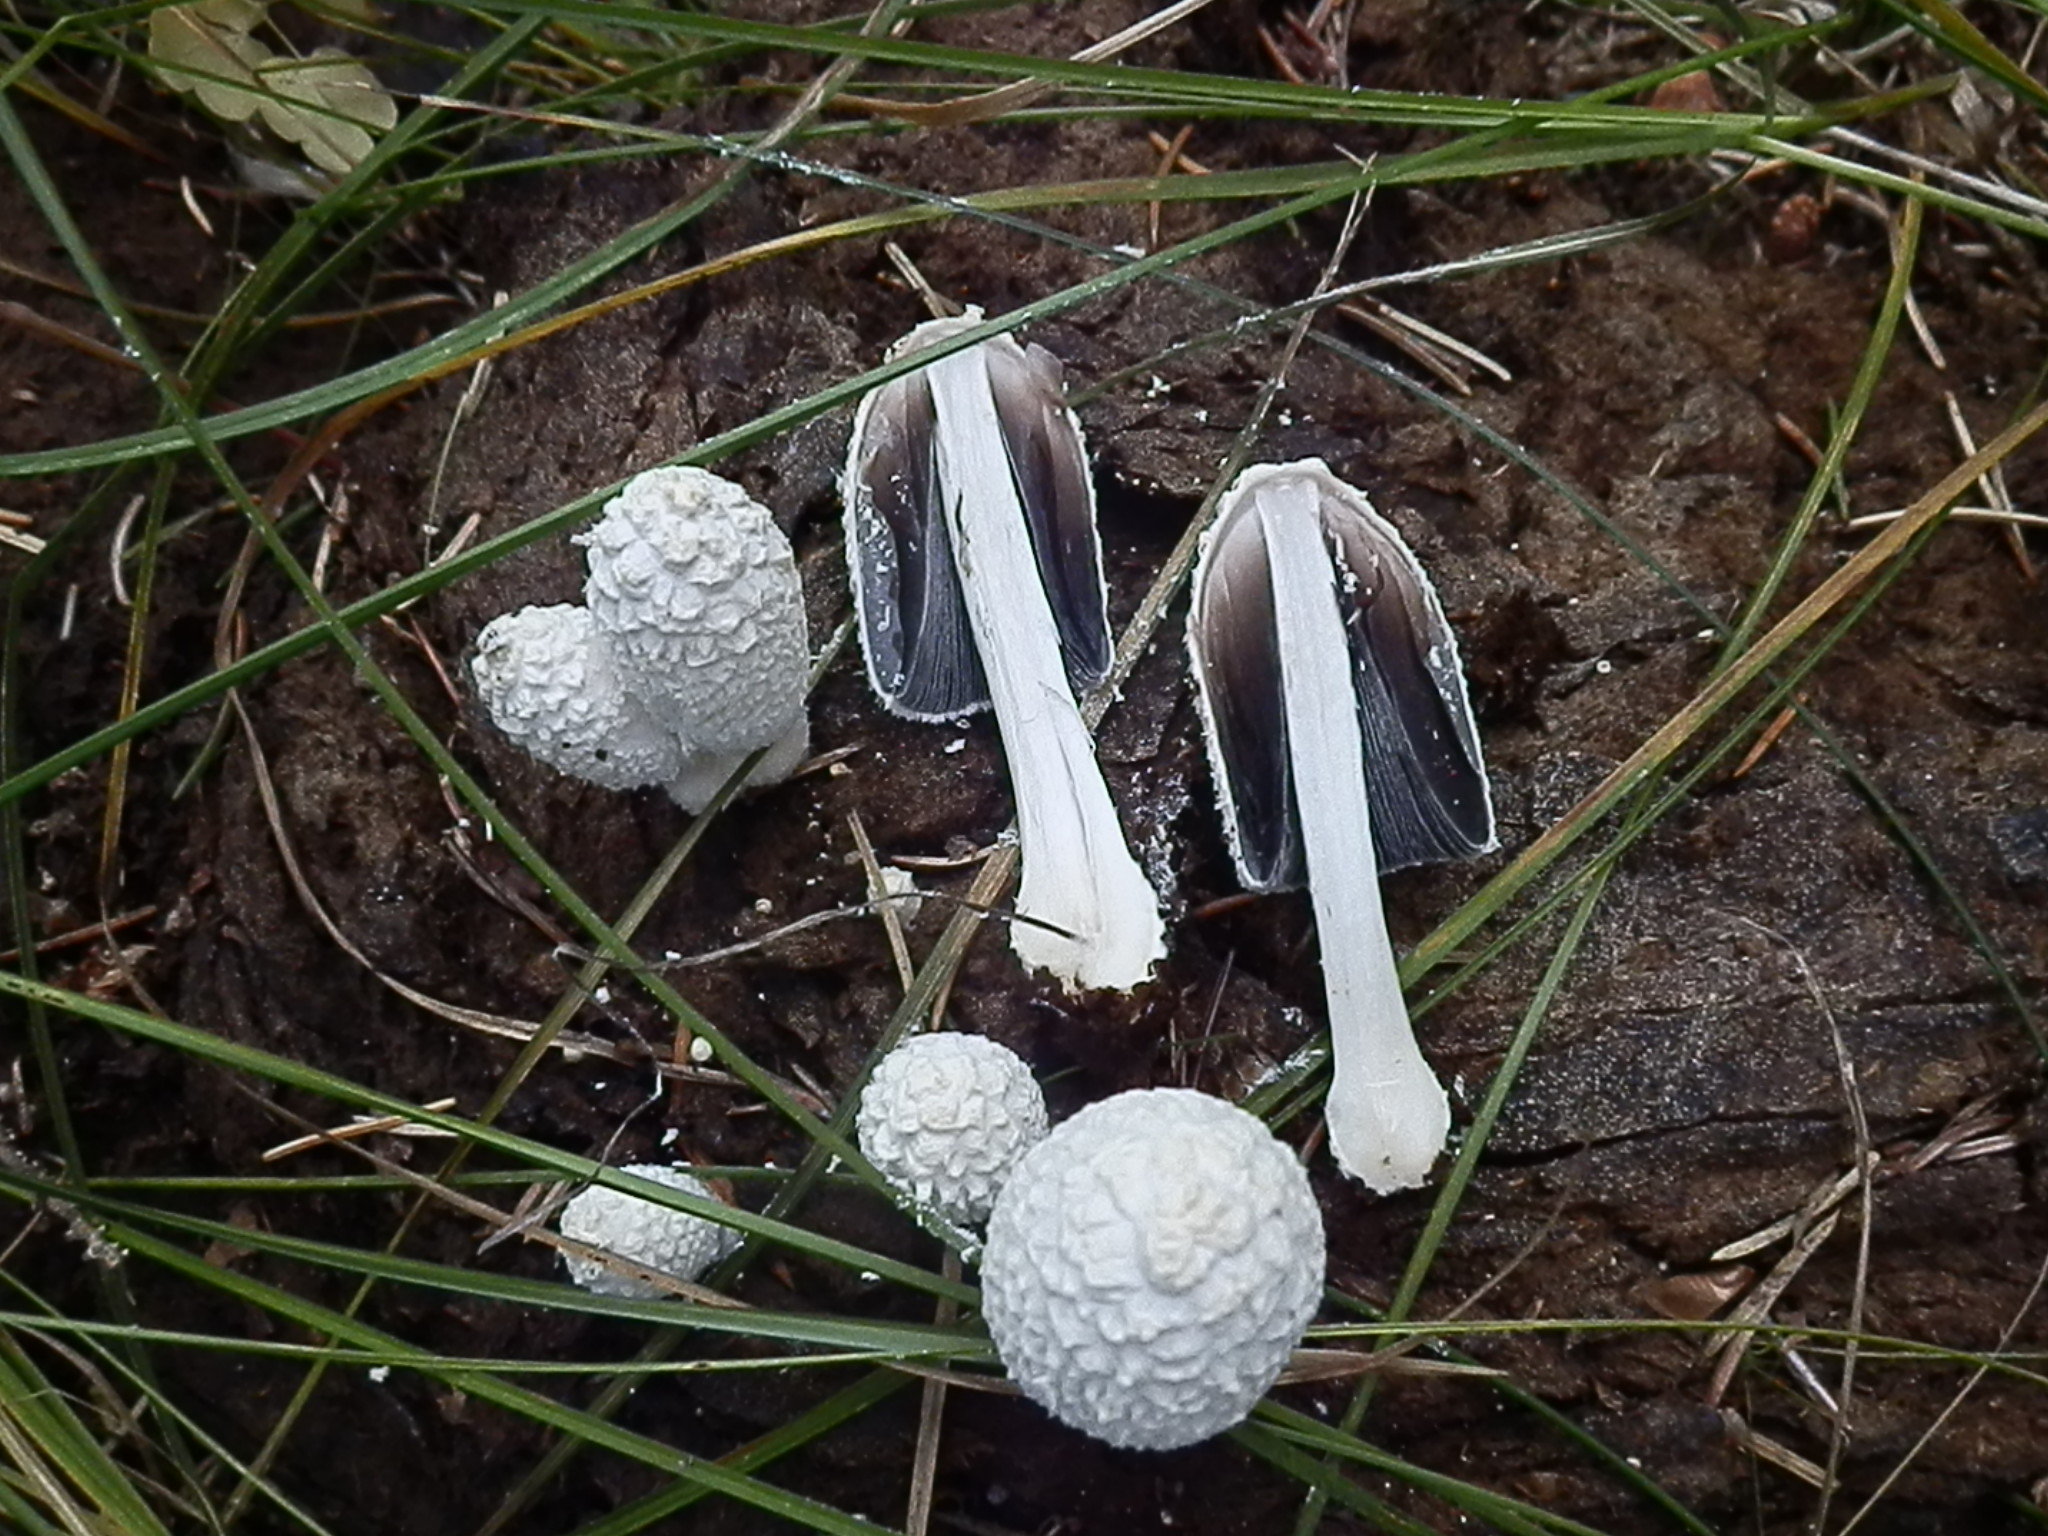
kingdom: Fungi
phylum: Basidiomycota
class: Agaricomycetes
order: Agaricales
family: Psathyrellaceae
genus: Coprinopsis
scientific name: Coprinopsis nivea
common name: Snowy inkcap
